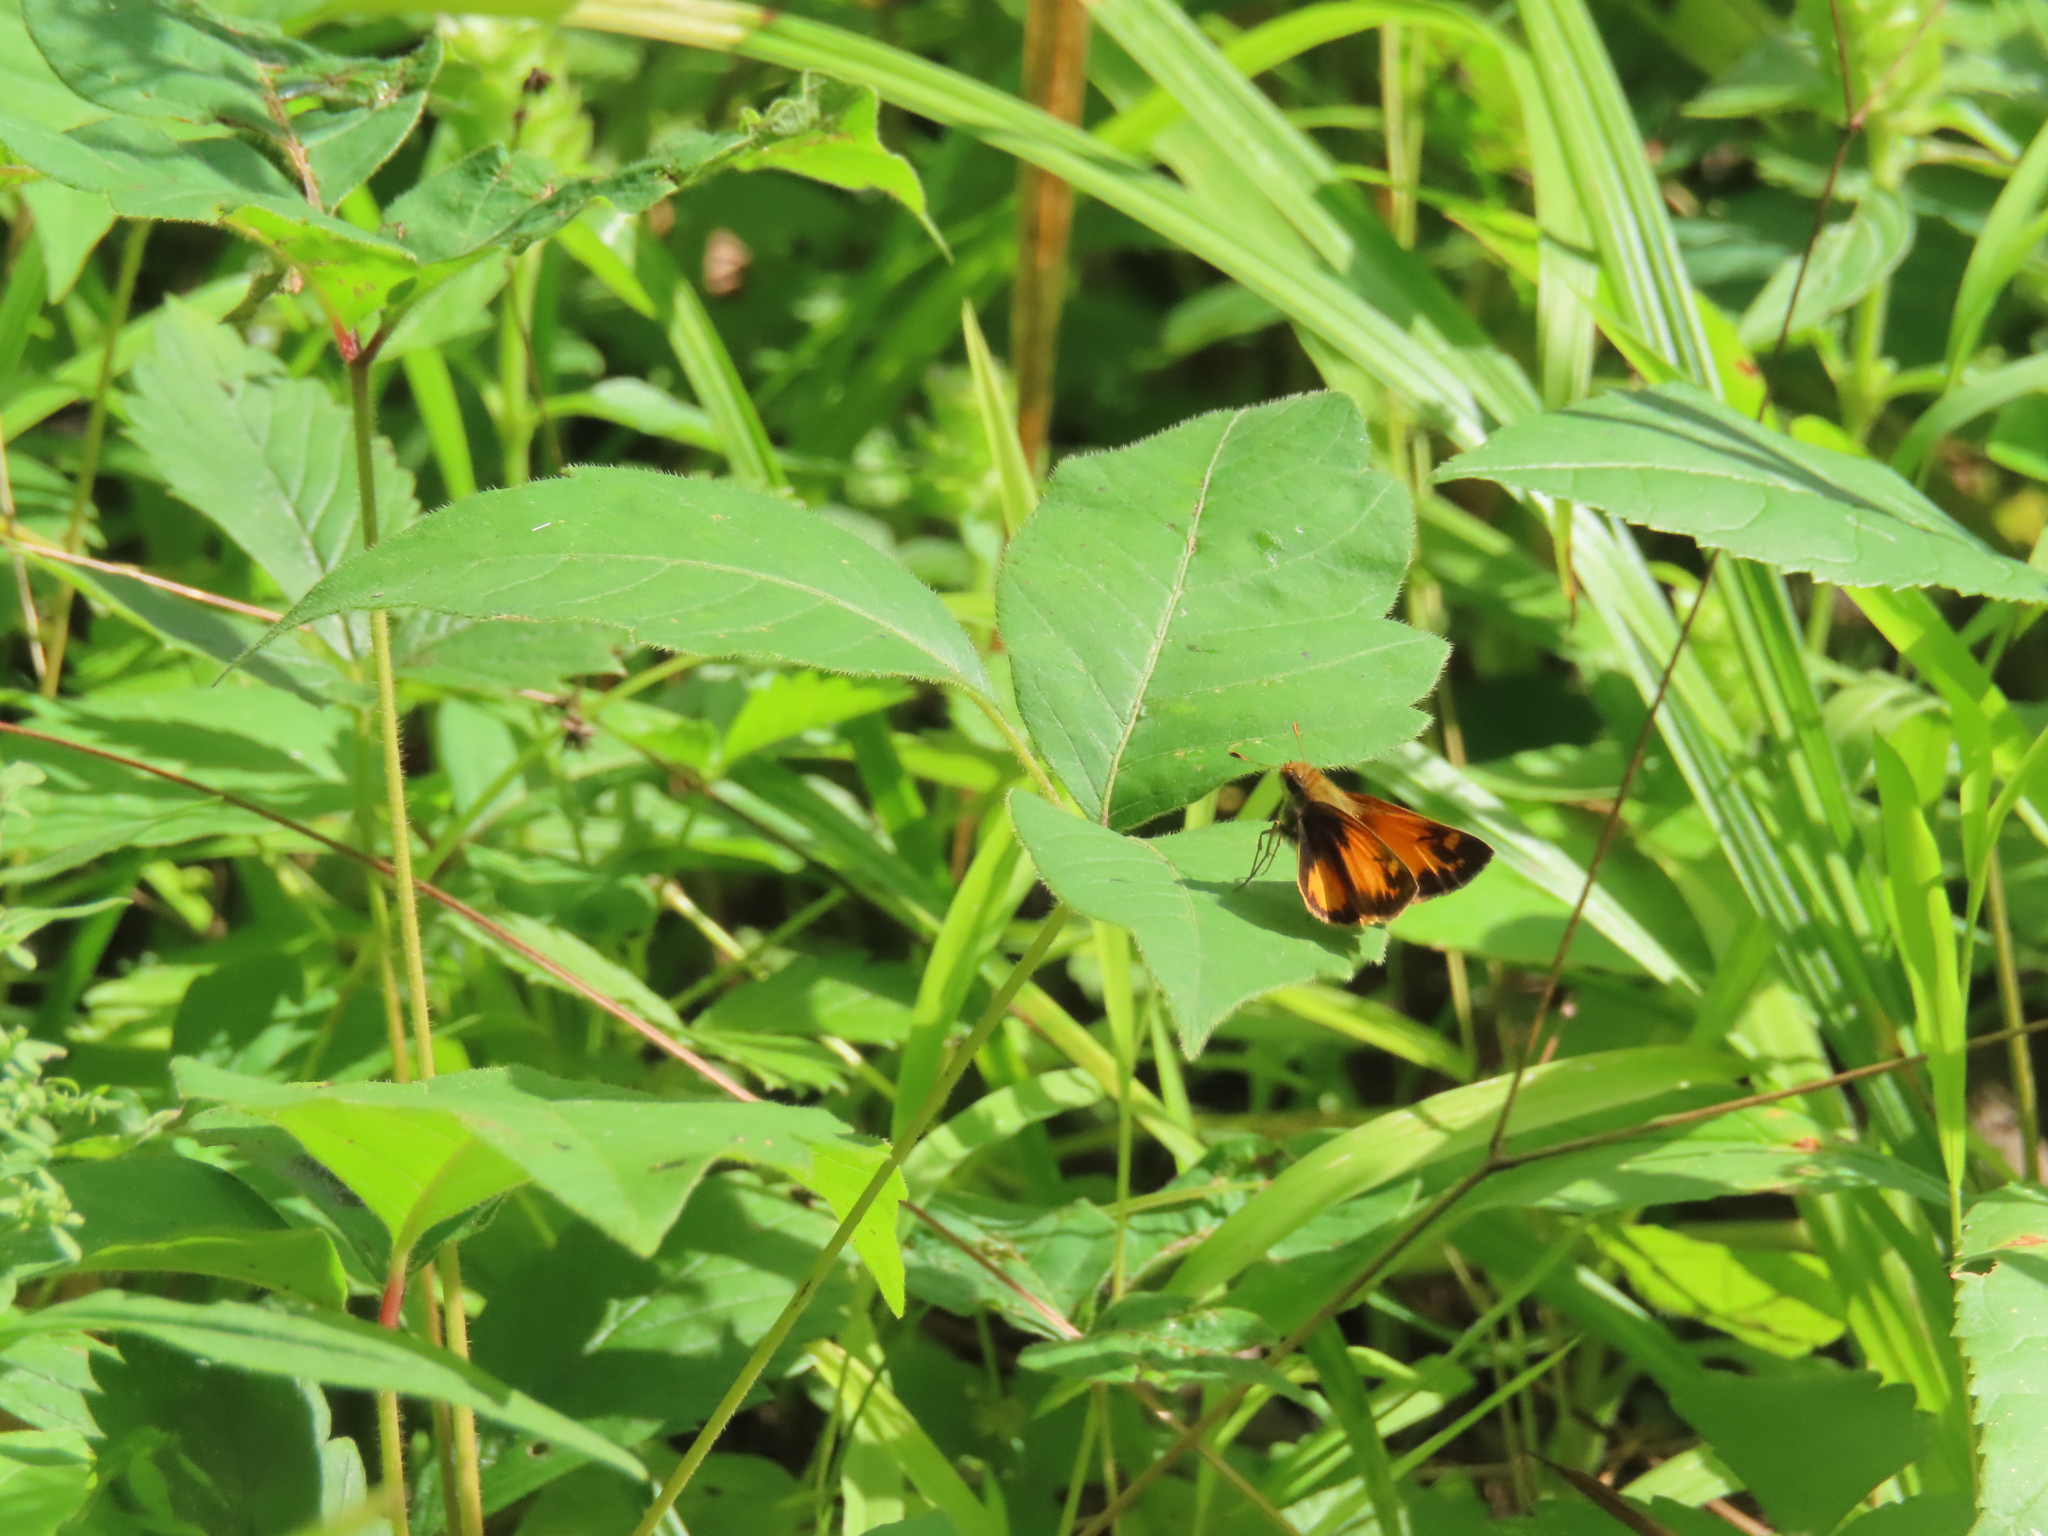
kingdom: Animalia
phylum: Arthropoda
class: Insecta
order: Lepidoptera
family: Hesperiidae
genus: Lon
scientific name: Lon zabulon
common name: Zabulon skipper
